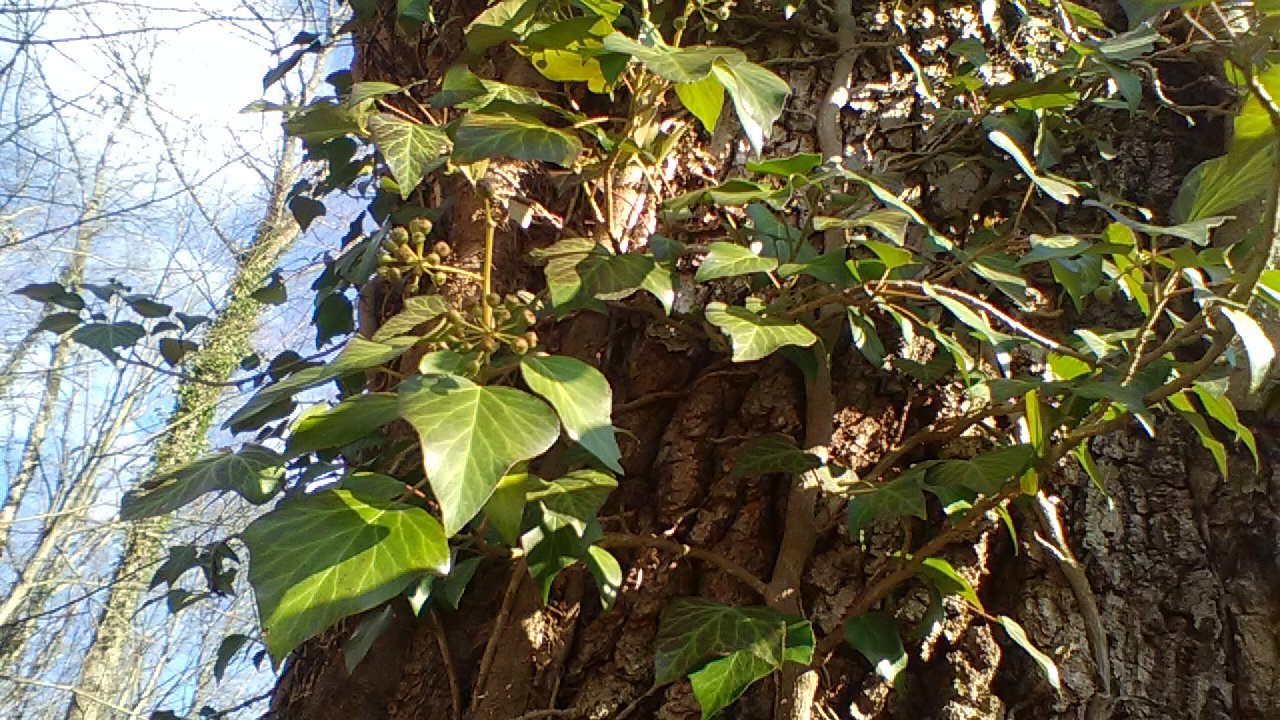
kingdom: Plantae
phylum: Tracheophyta
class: Magnoliopsida
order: Apiales
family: Araliaceae
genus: Hedera
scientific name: Hedera colchica
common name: Persian ivy
